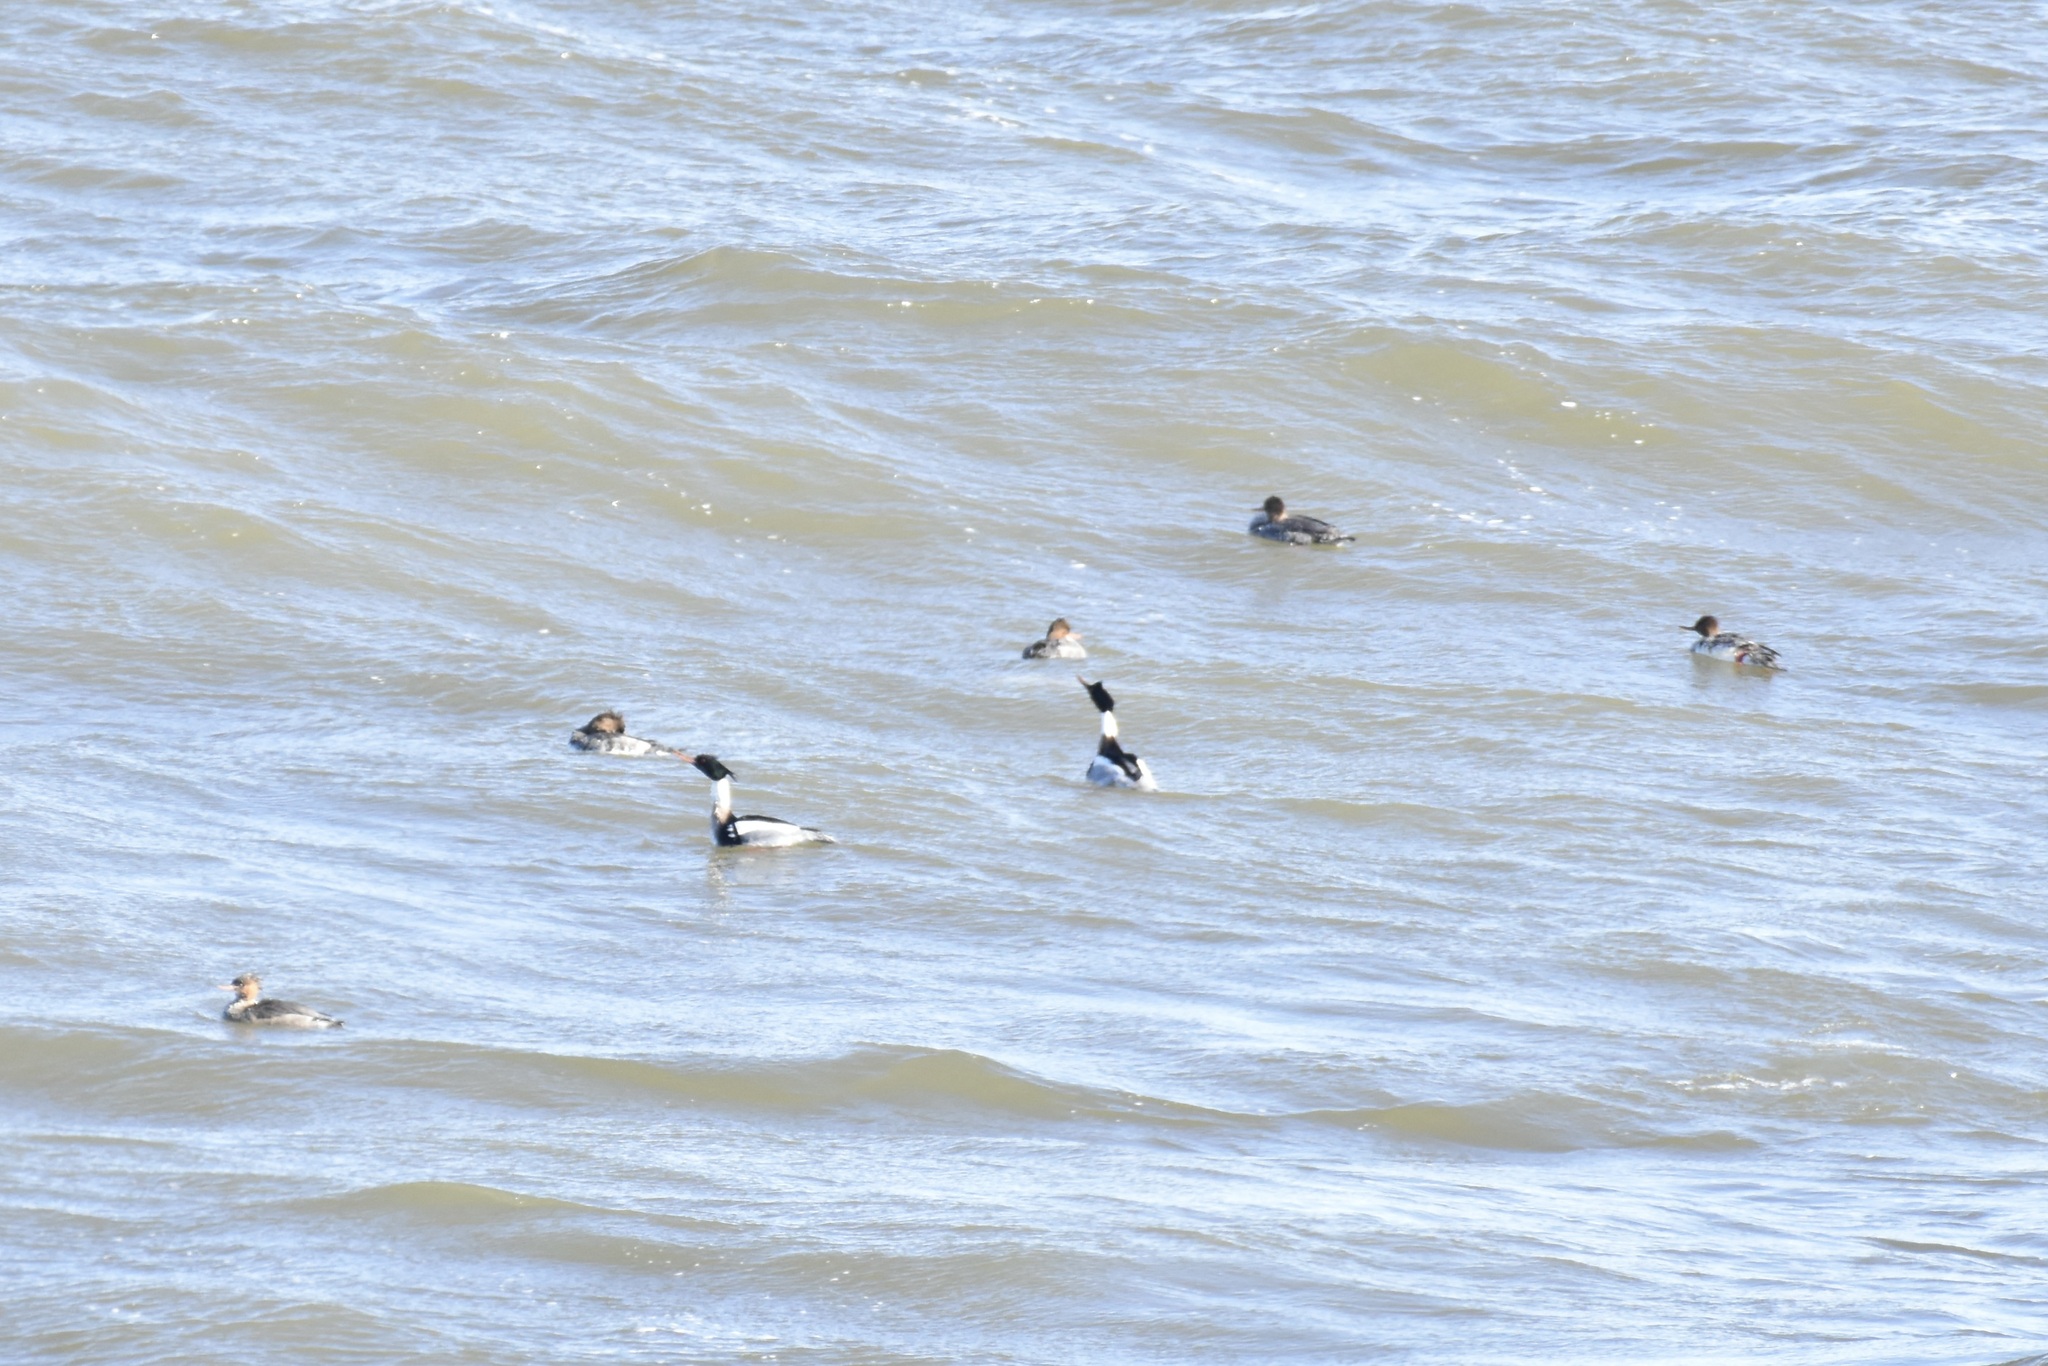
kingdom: Animalia
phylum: Chordata
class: Aves
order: Anseriformes
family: Anatidae
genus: Mergus
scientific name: Mergus serrator
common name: Red-breasted merganser
